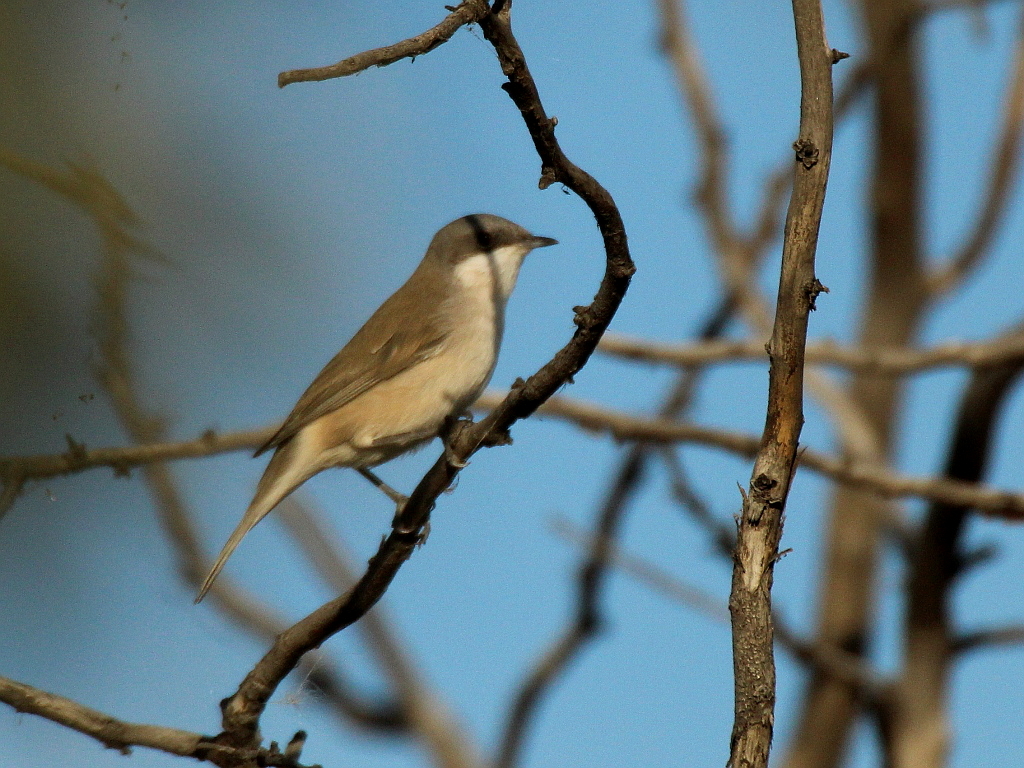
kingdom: Animalia
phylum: Chordata
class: Aves
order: Passeriformes
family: Sylviidae
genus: Sylvia
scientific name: Sylvia curruca
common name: Lesser whitethroat
